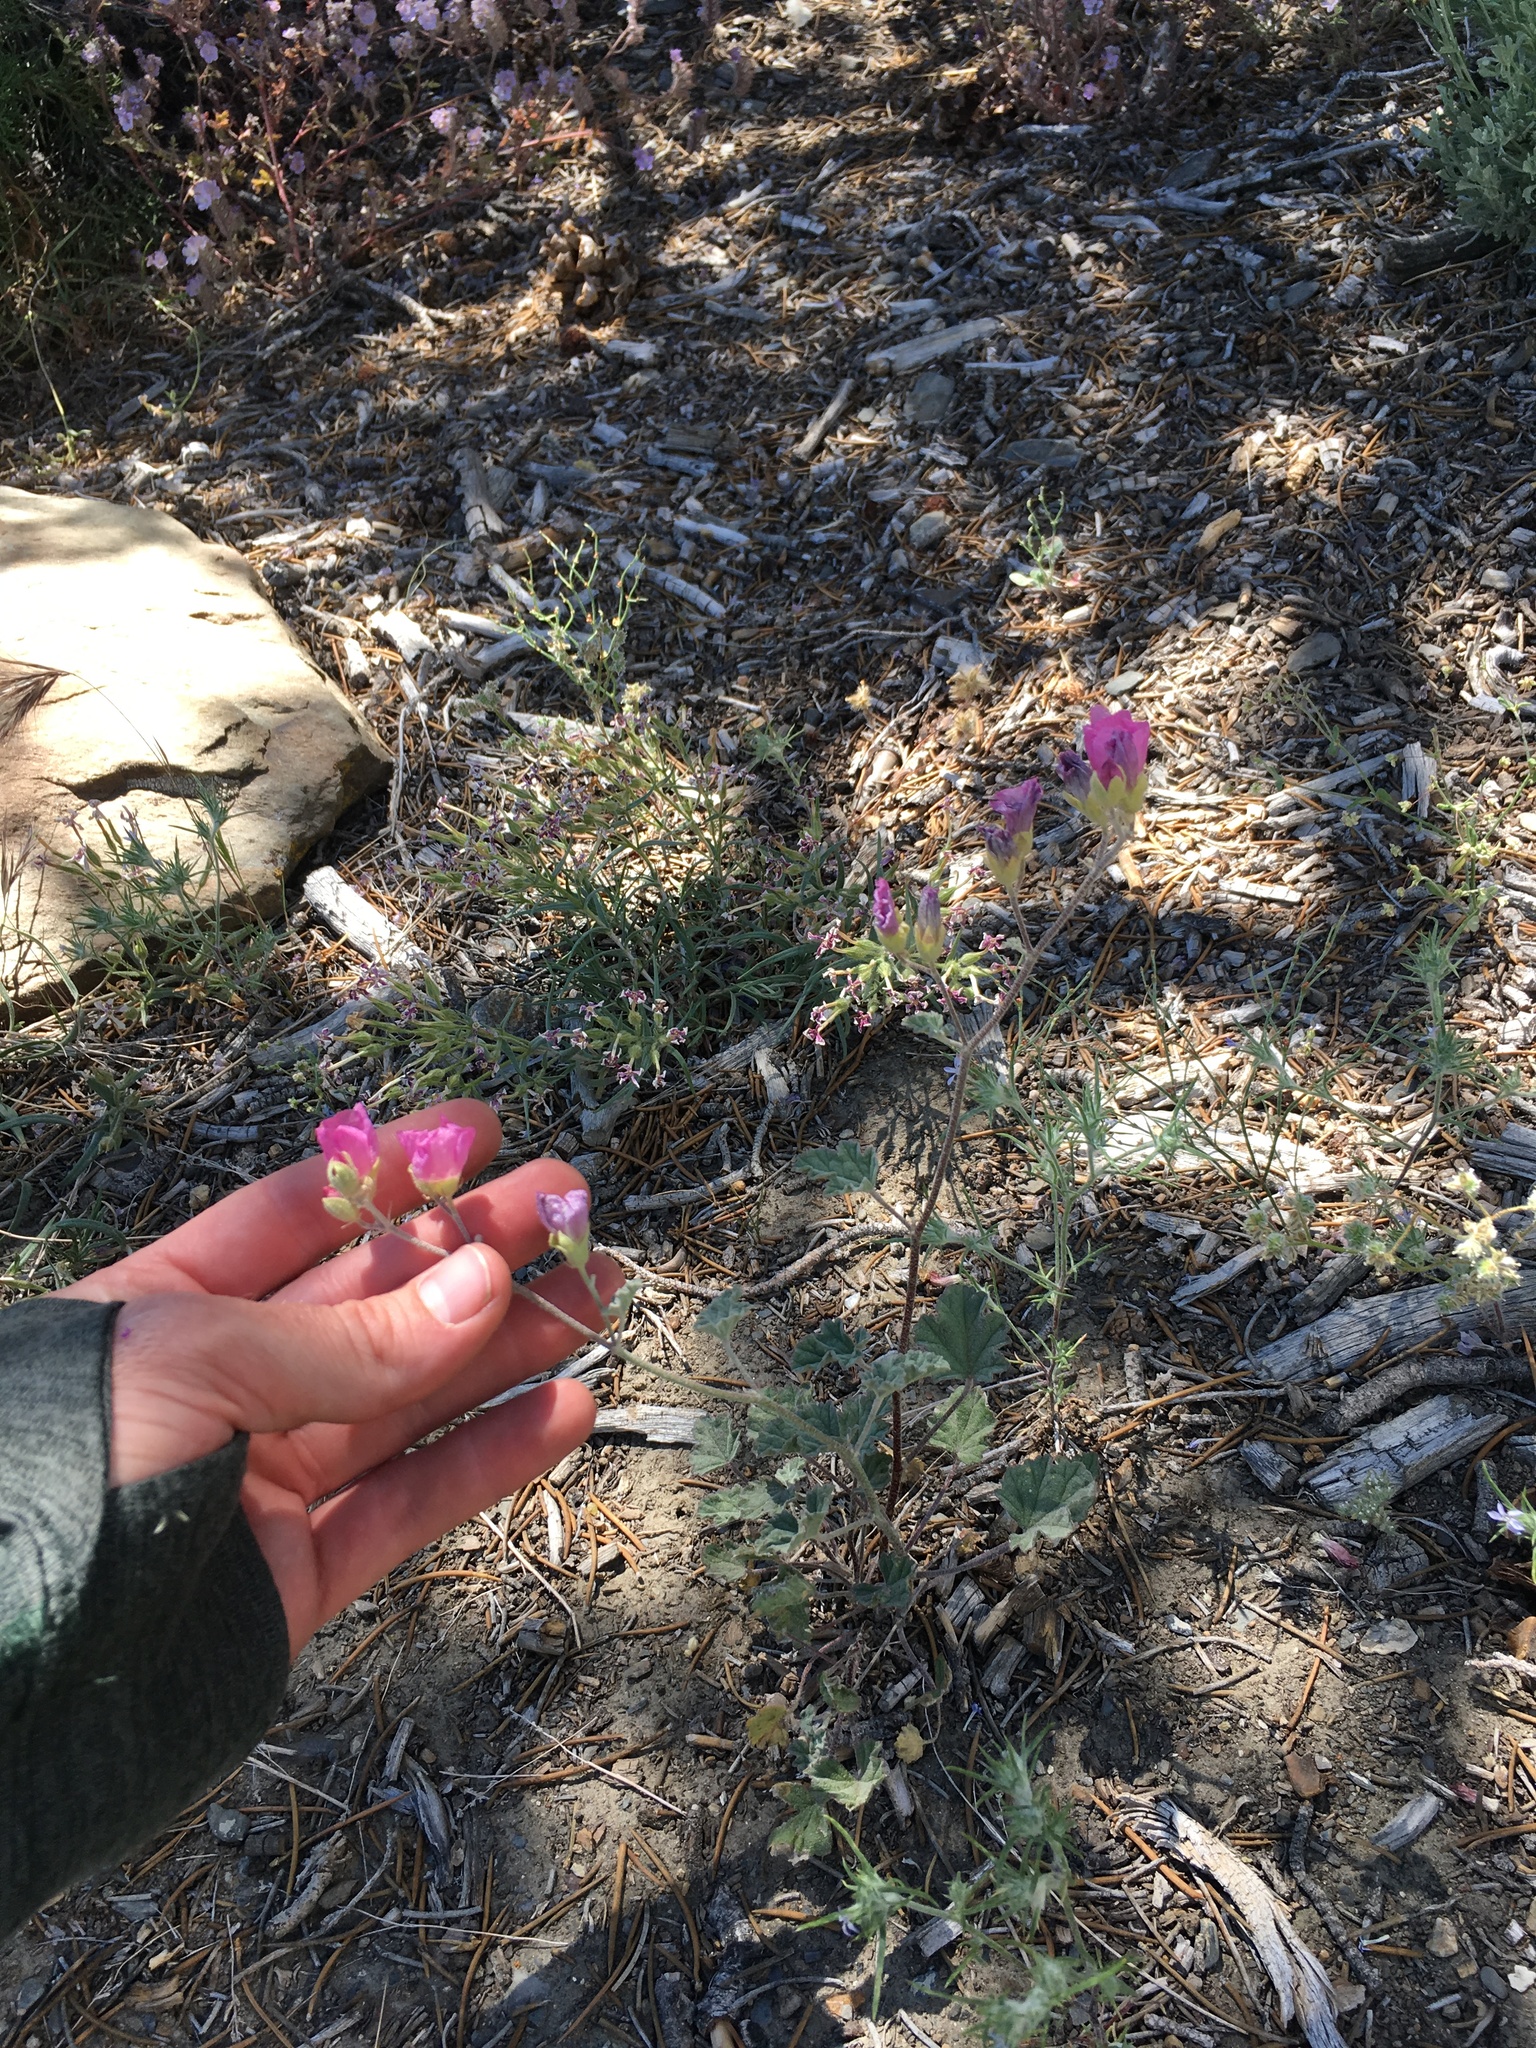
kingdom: Plantae
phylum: Tracheophyta
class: Magnoliopsida
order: Malvales
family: Malvaceae
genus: Sphaeralcea
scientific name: Sphaeralcea ambigua
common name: Apricot globe-mallow
